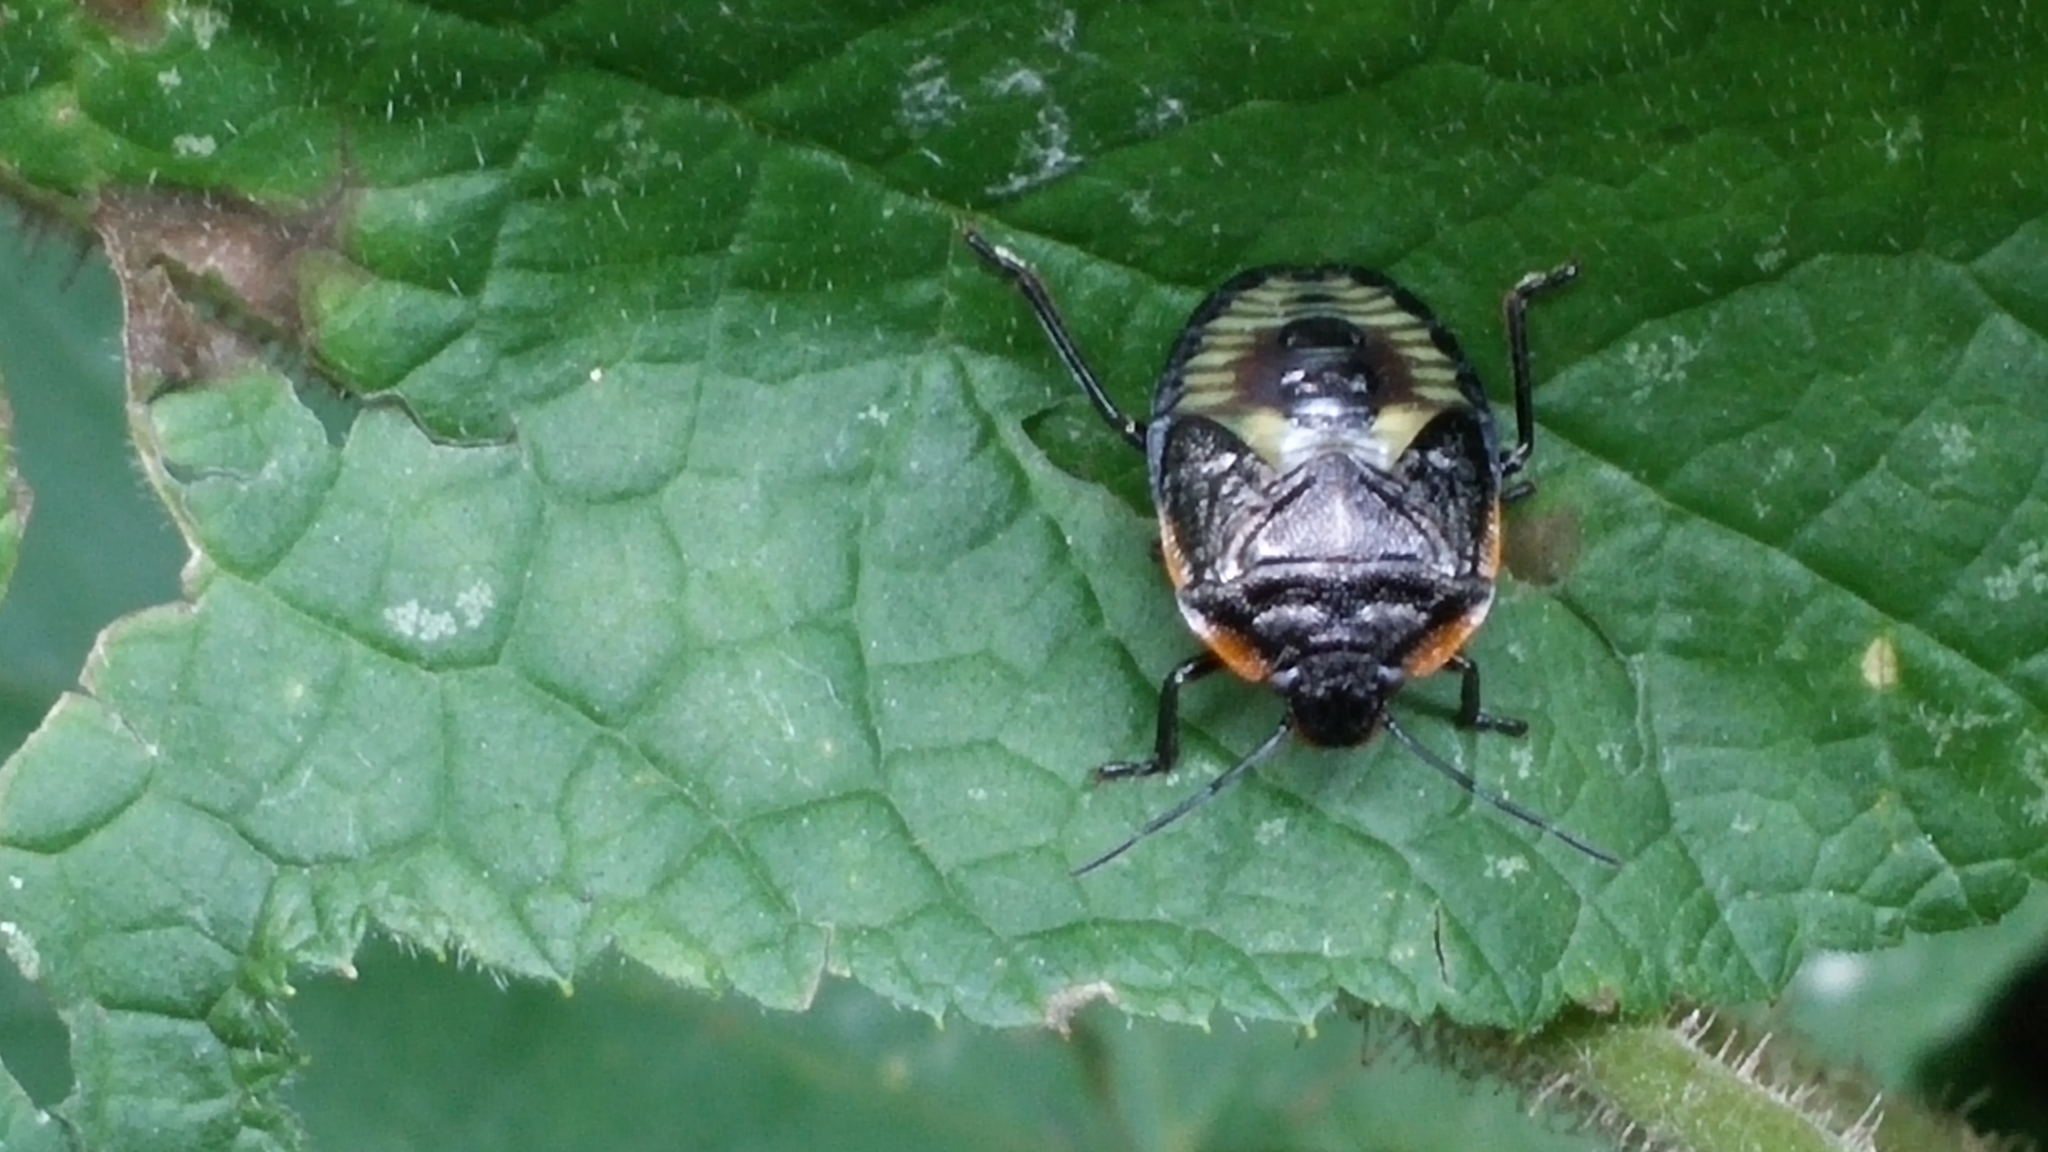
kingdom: Animalia
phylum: Arthropoda
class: Insecta
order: Hemiptera
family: Pentatomidae
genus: Chinavia
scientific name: Chinavia hilaris
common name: Green stink bug
